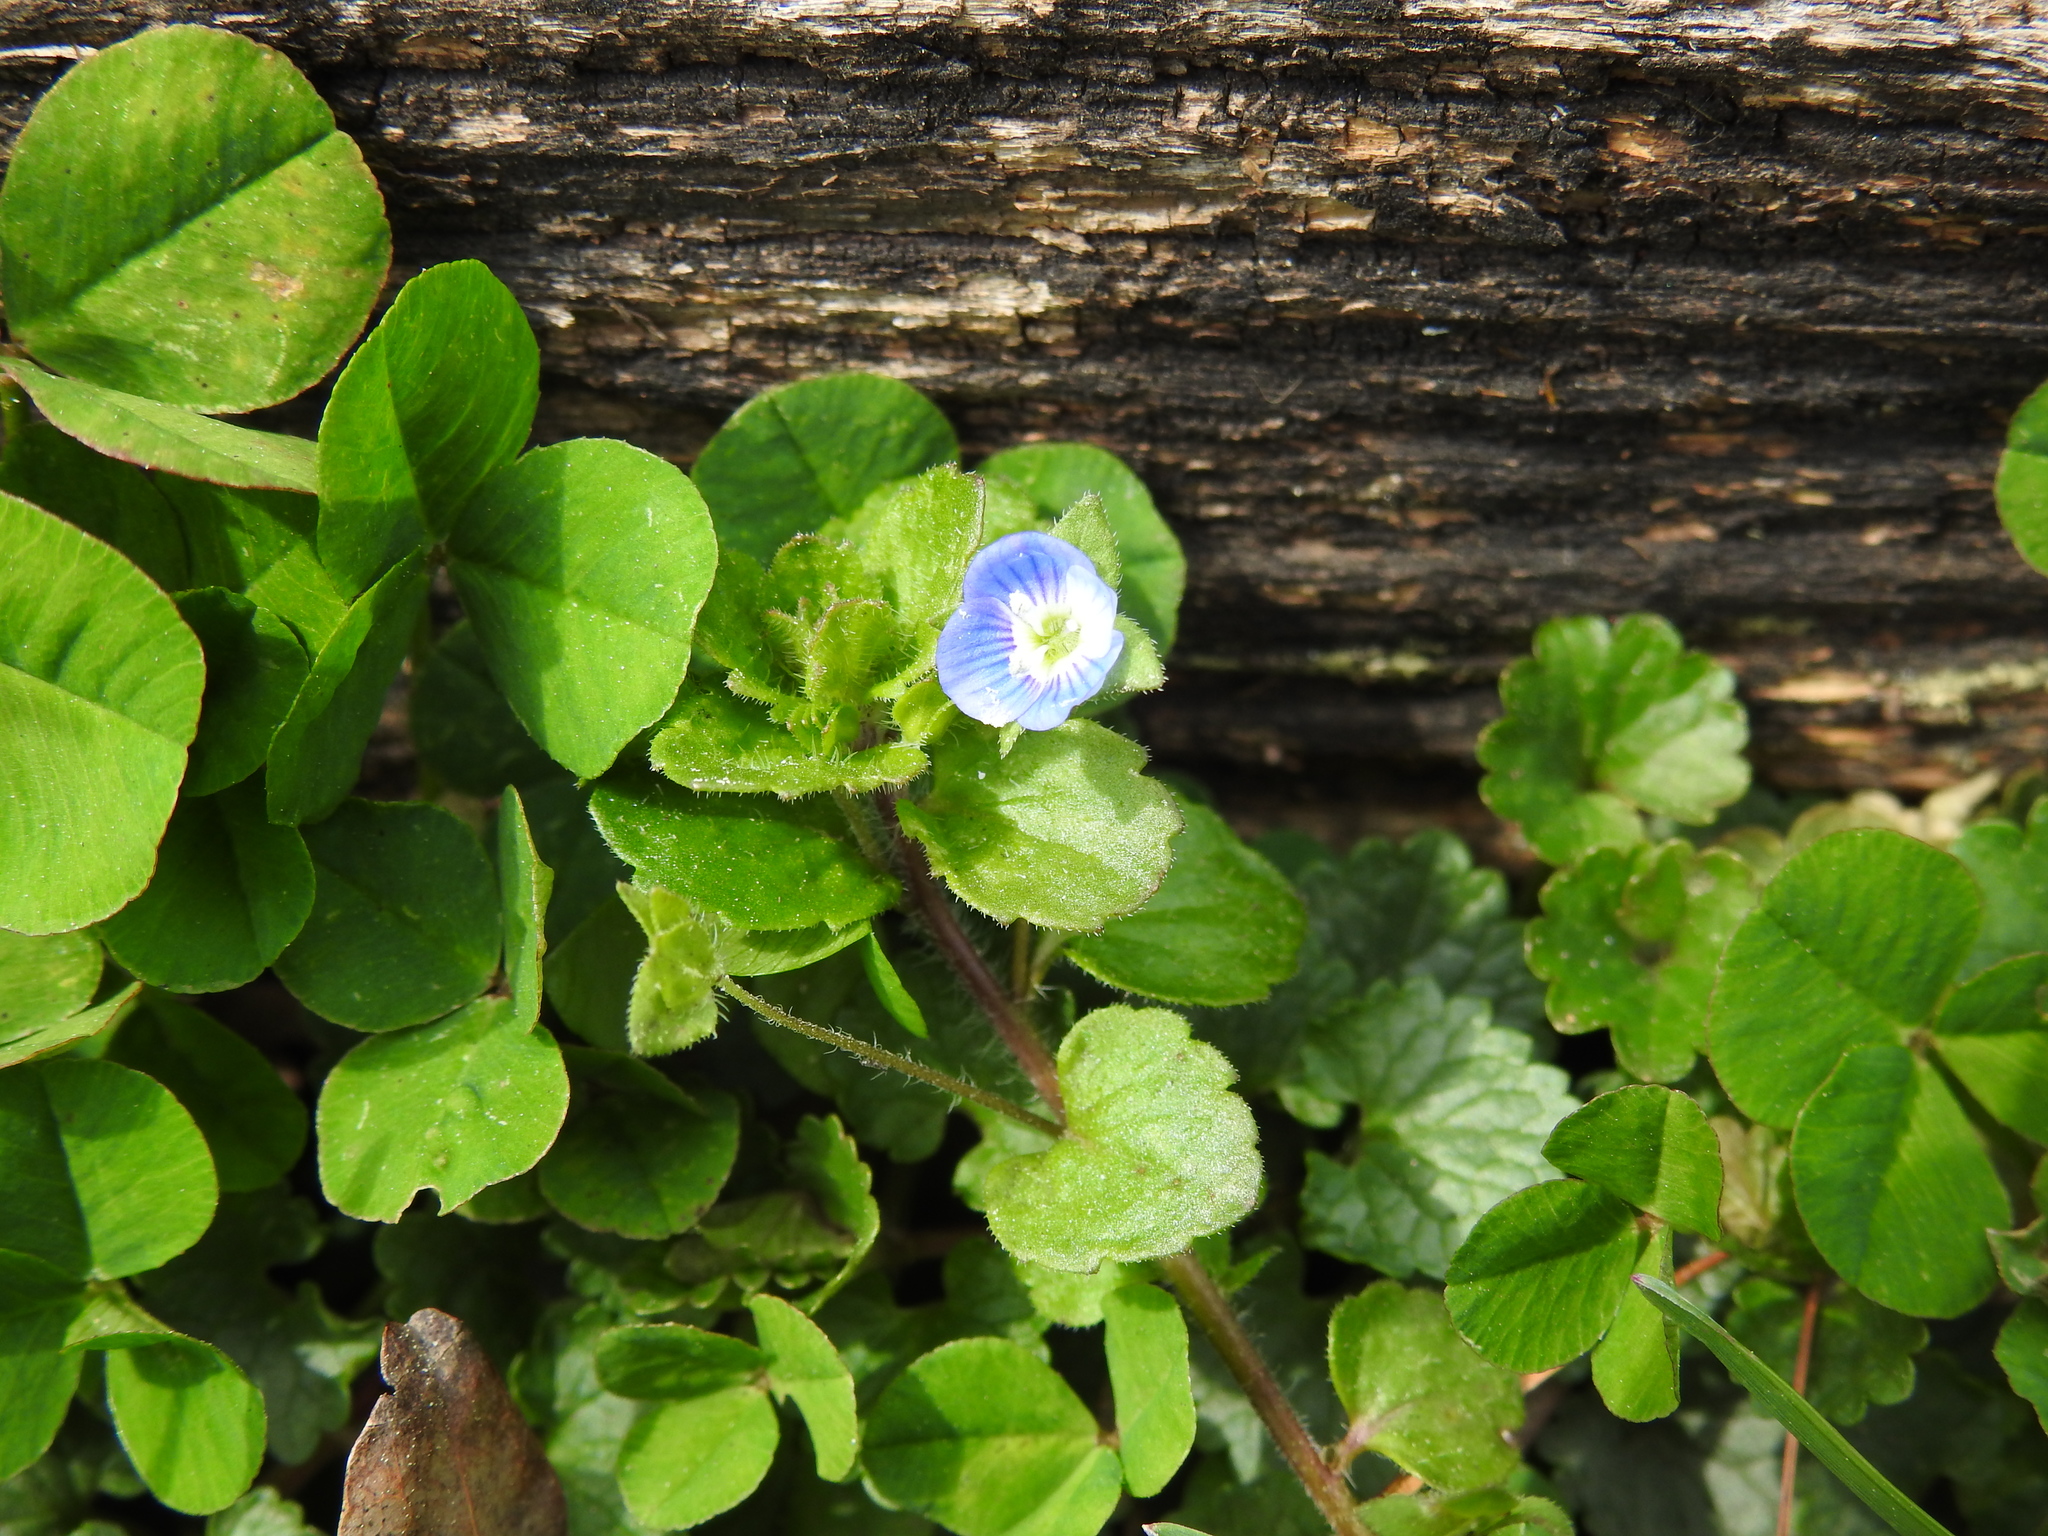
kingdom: Plantae
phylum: Tracheophyta
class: Magnoliopsida
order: Lamiales
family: Plantaginaceae
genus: Veronica
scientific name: Veronica persica
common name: Common field-speedwell
